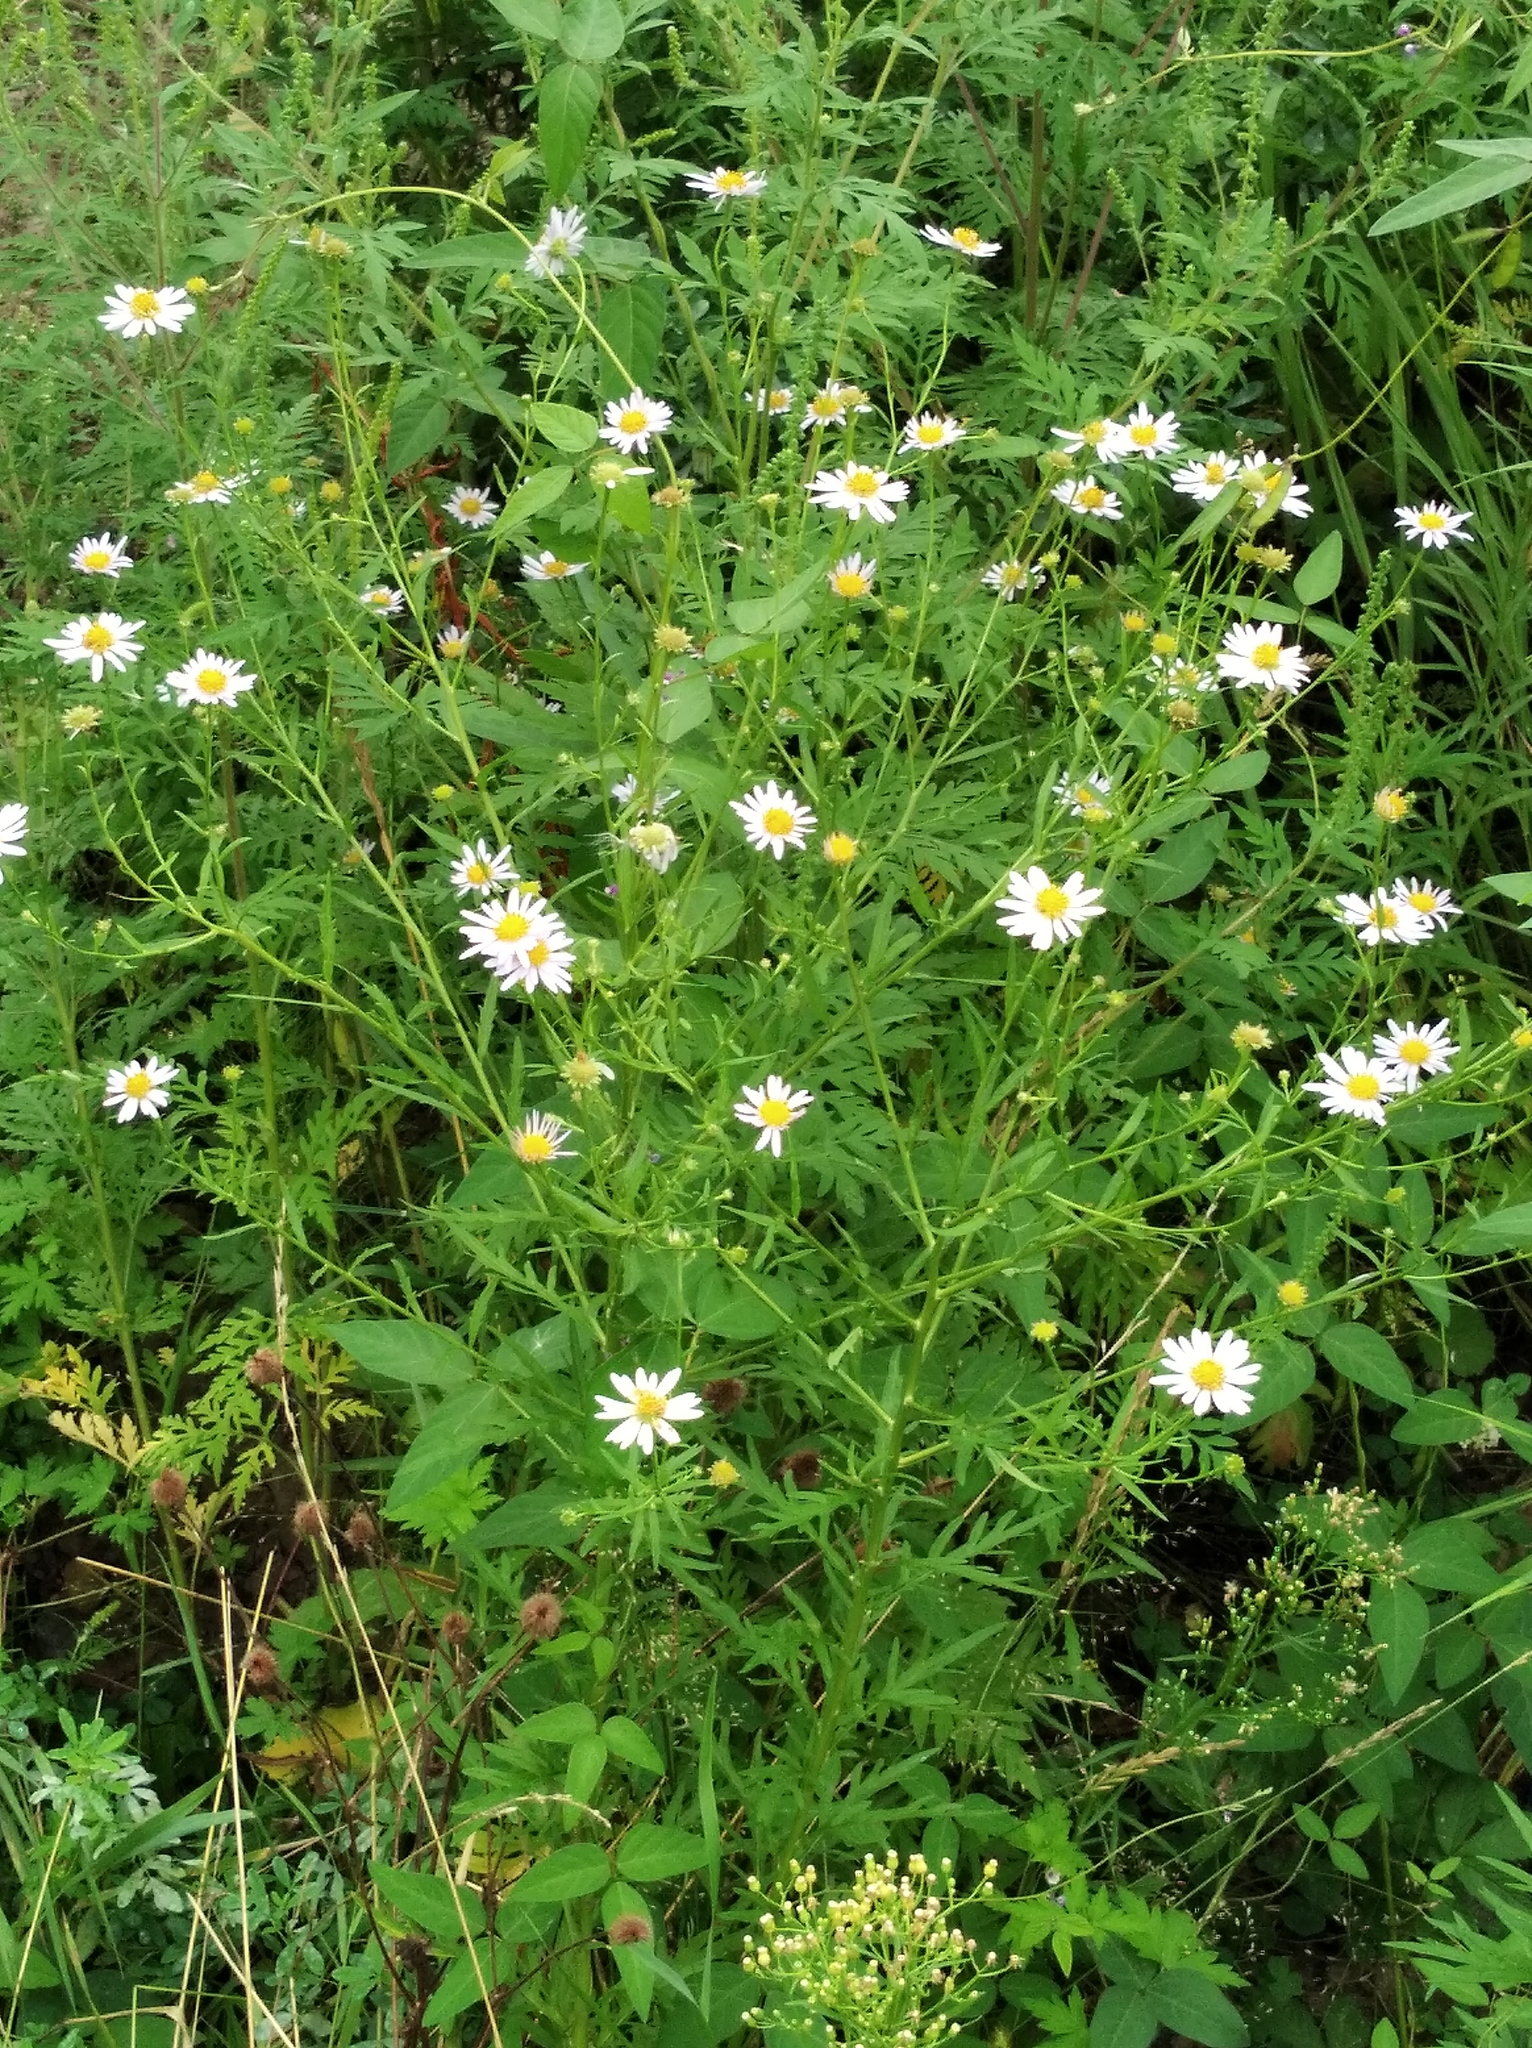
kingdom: Plantae
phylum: Tracheophyta
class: Magnoliopsida
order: Asterales
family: Asteraceae
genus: Kalimeris
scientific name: Kalimeris incisa
